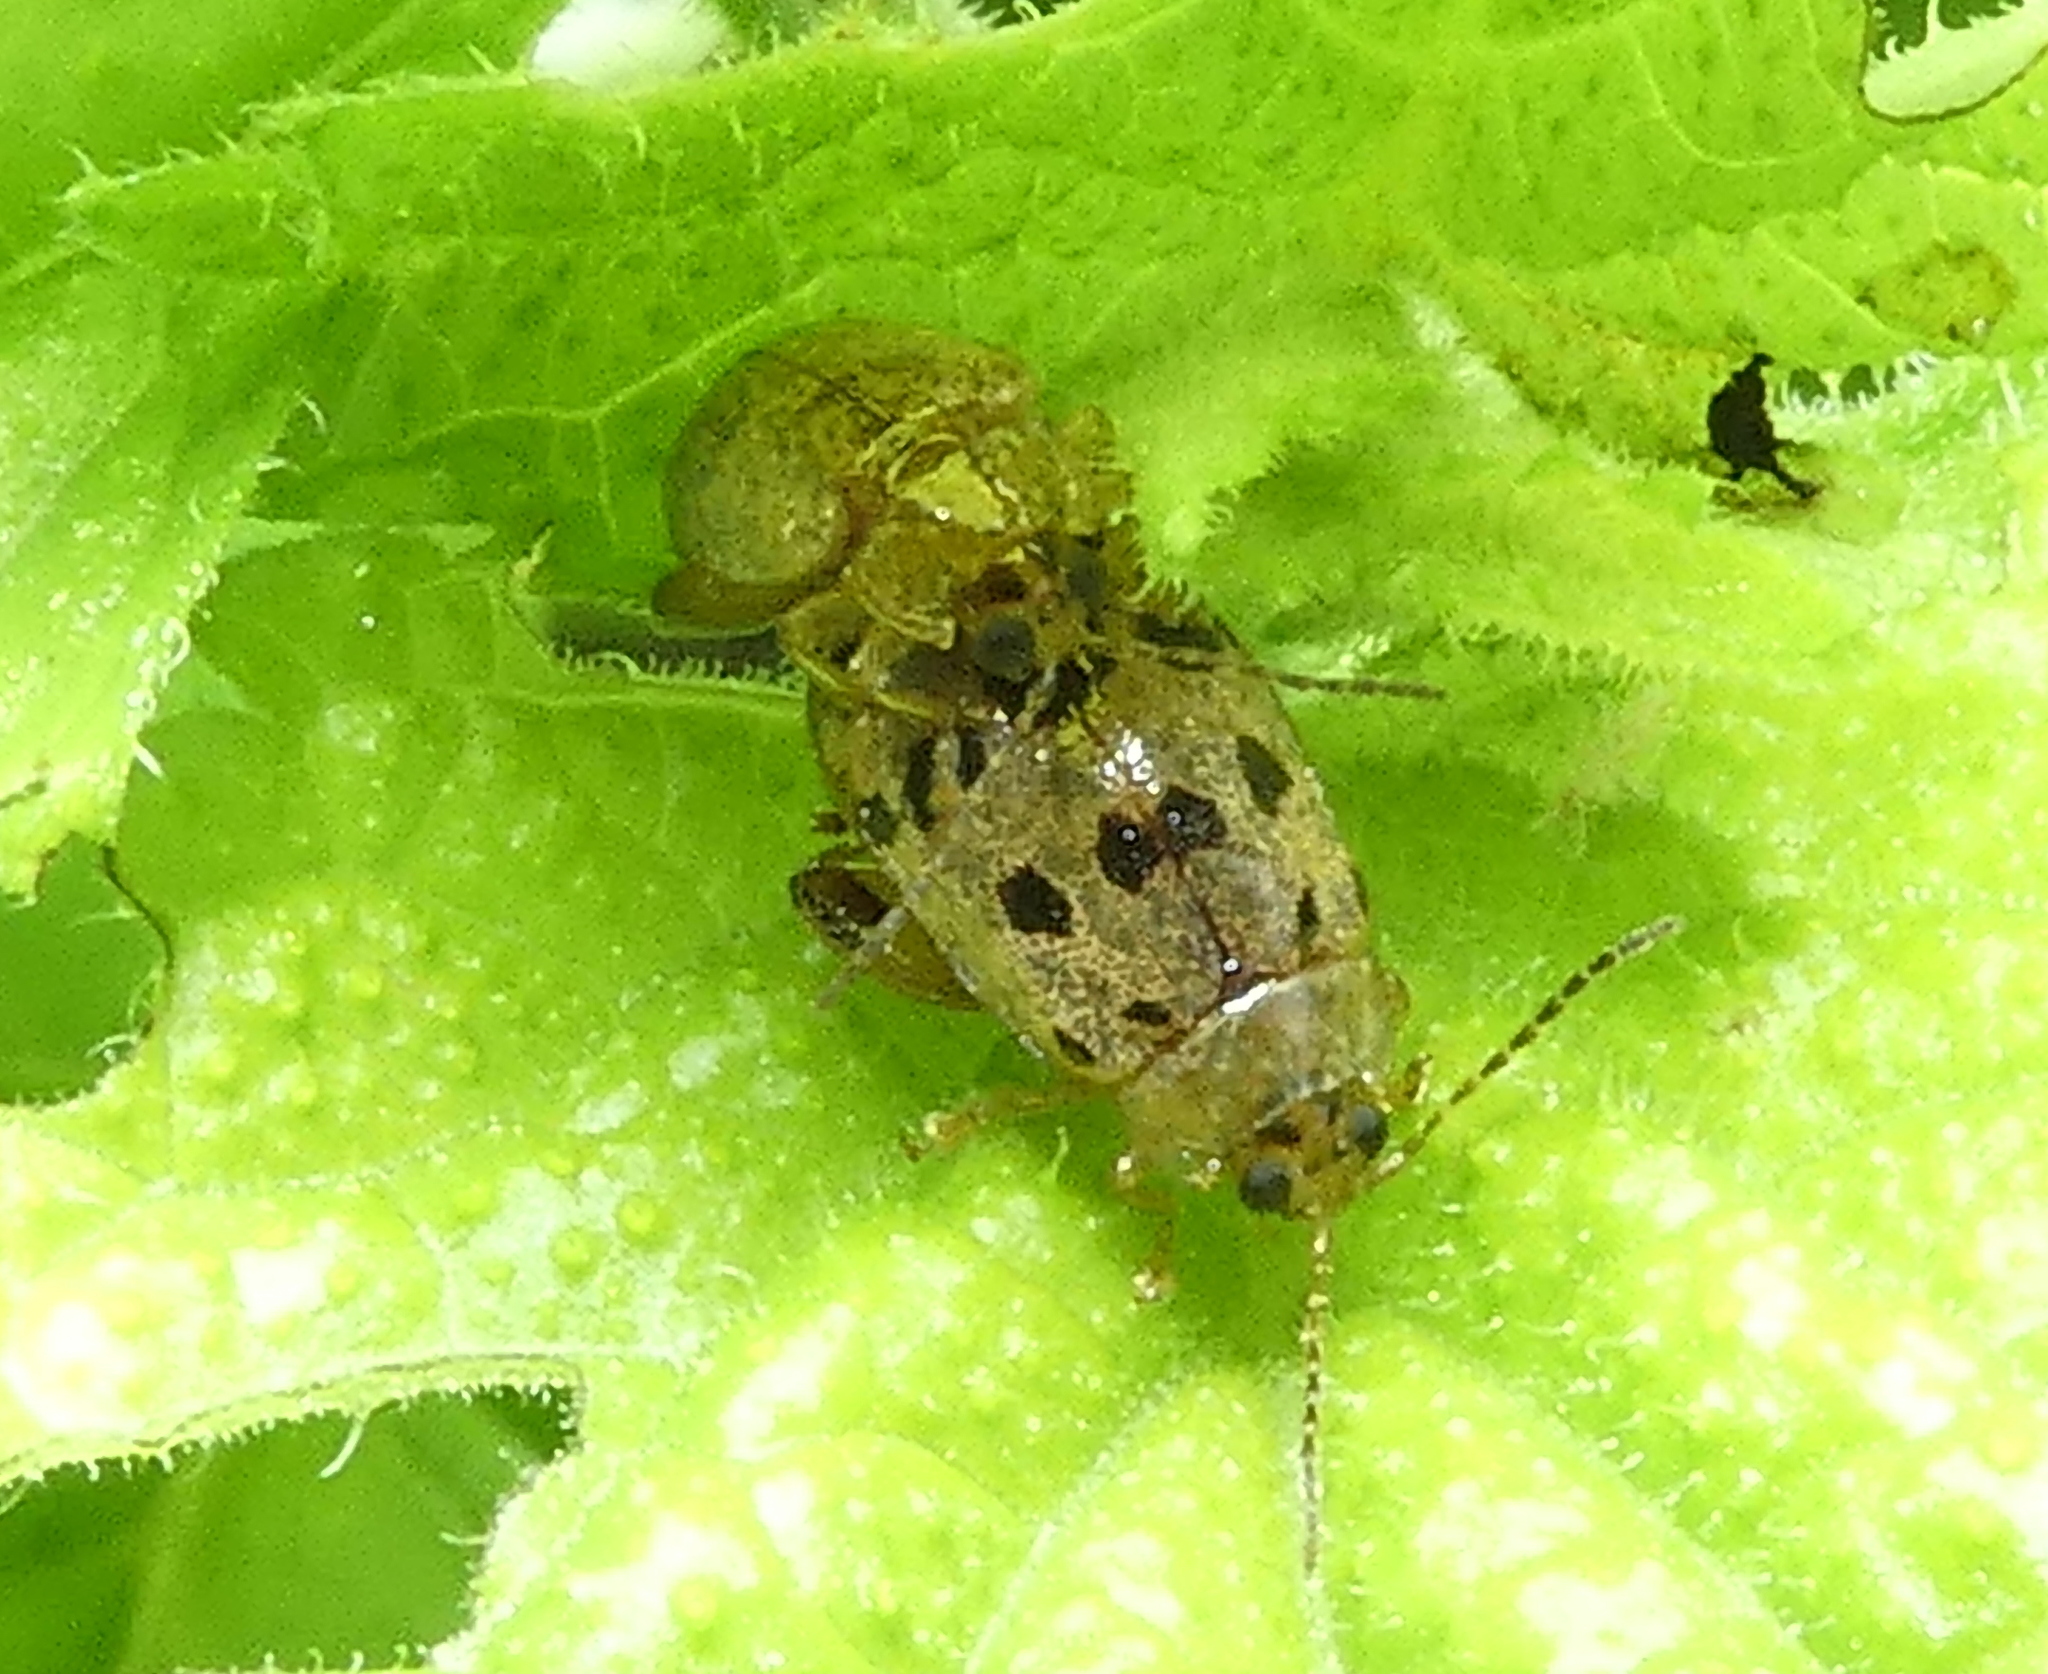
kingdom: Animalia
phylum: Arthropoda
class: Insecta
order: Coleoptera
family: Chrysomelidae
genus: Alagoasa
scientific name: Alagoasa
